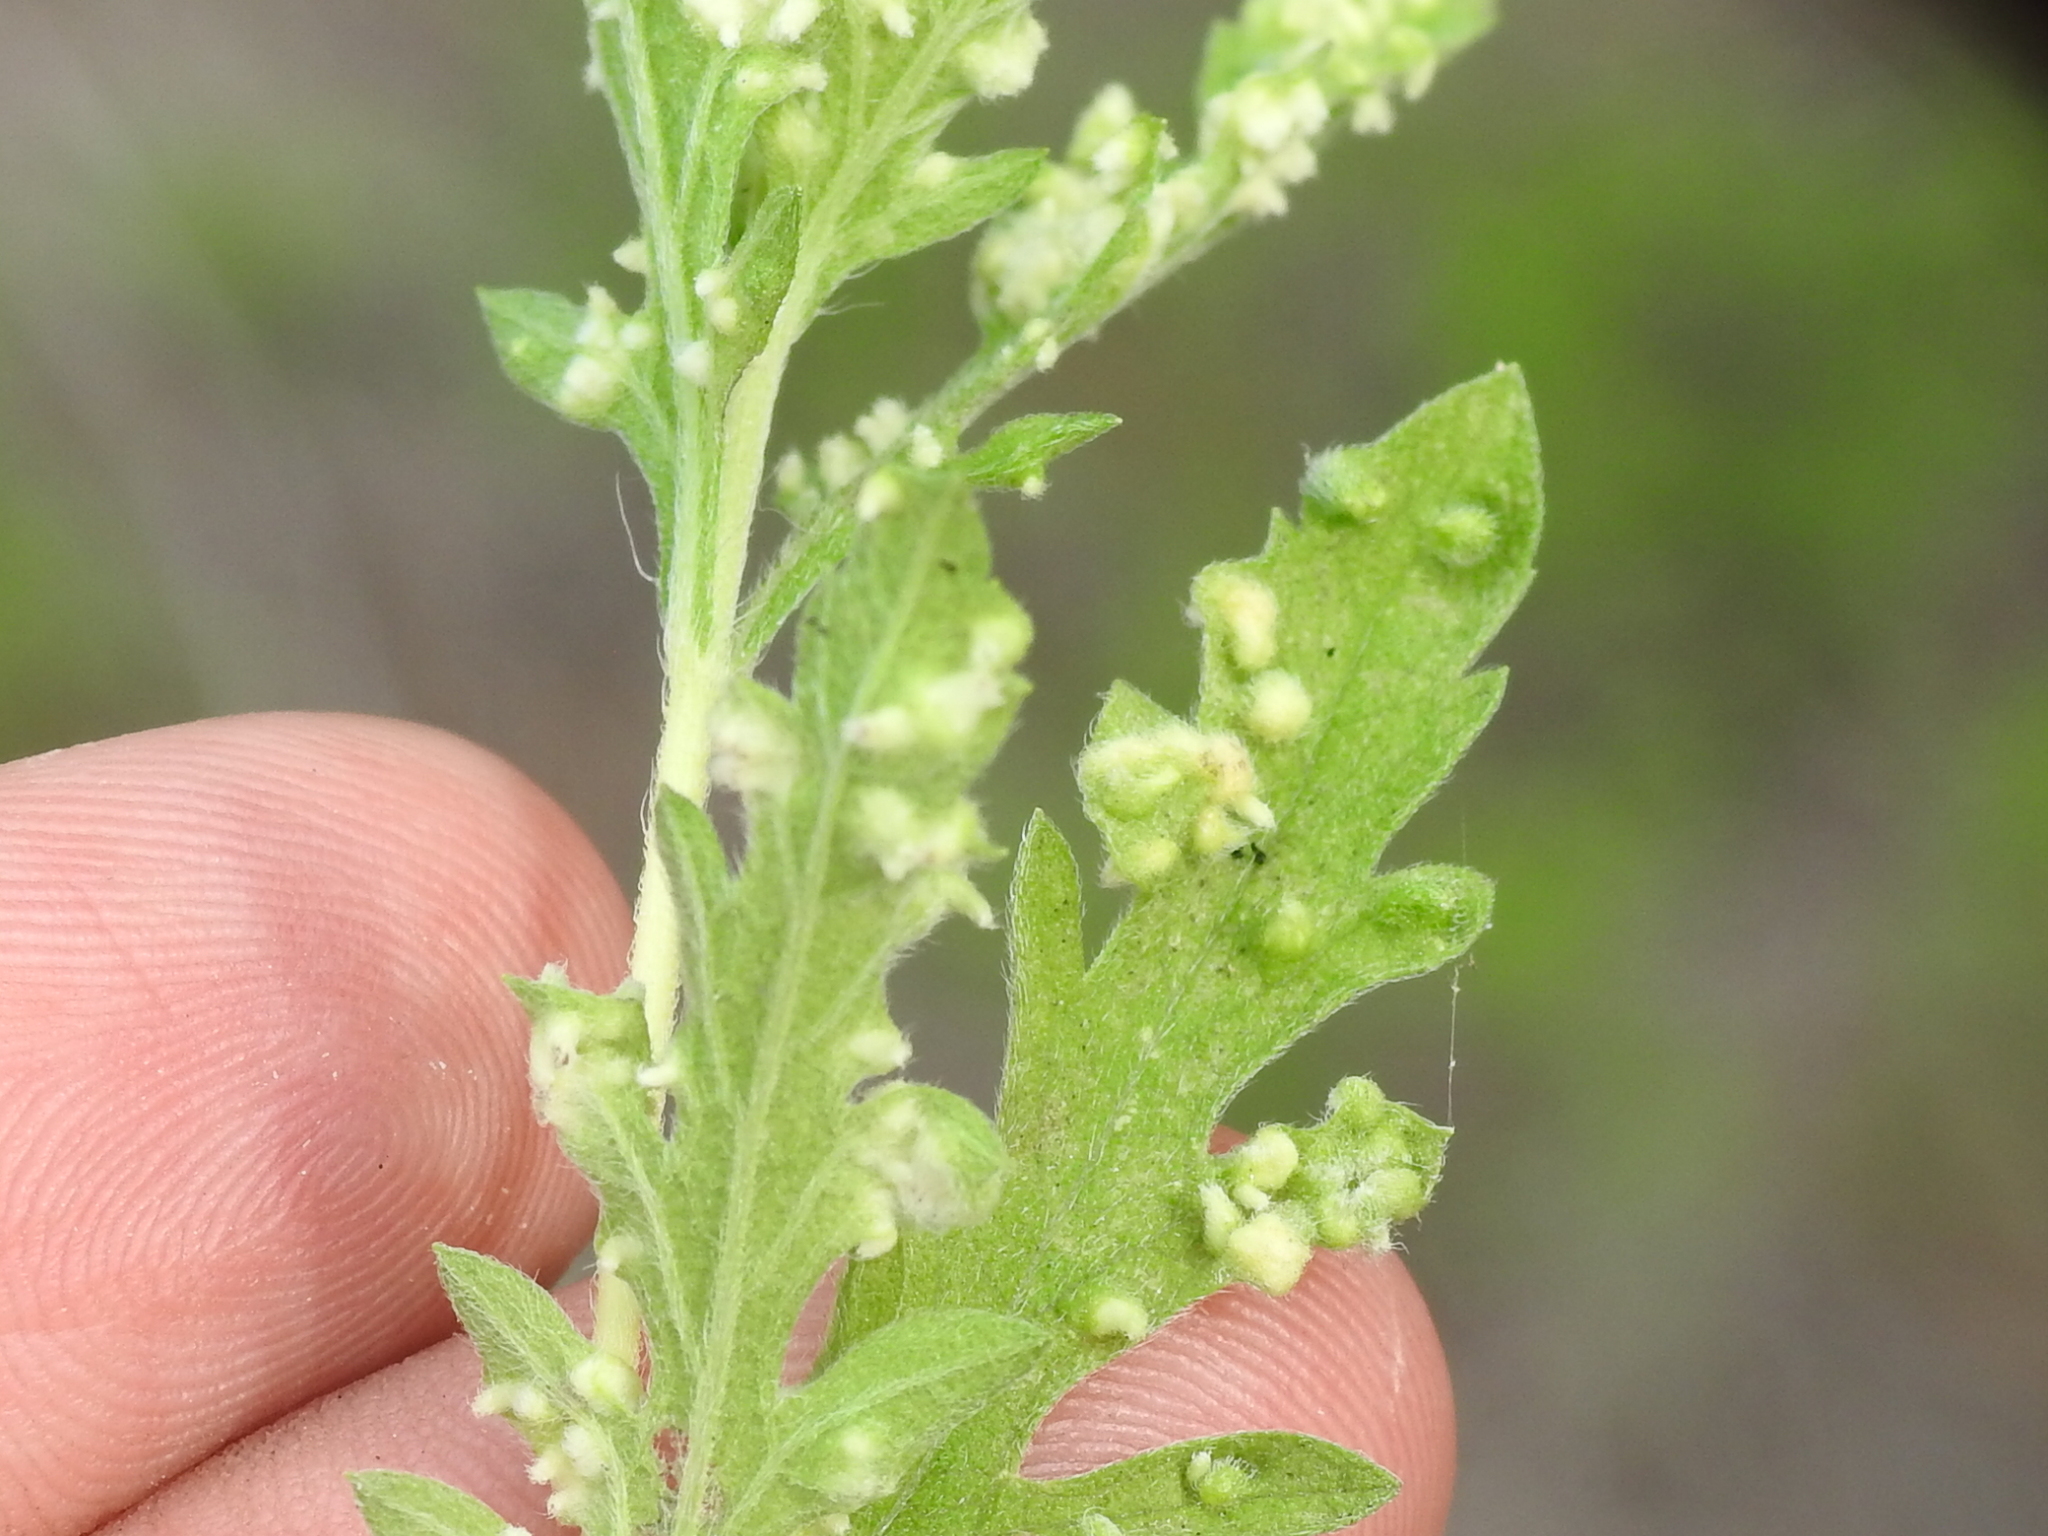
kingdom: Animalia
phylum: Arthropoda
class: Arachnida
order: Trombidiformes
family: Eriophyidae
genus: Aceria
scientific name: Aceria
